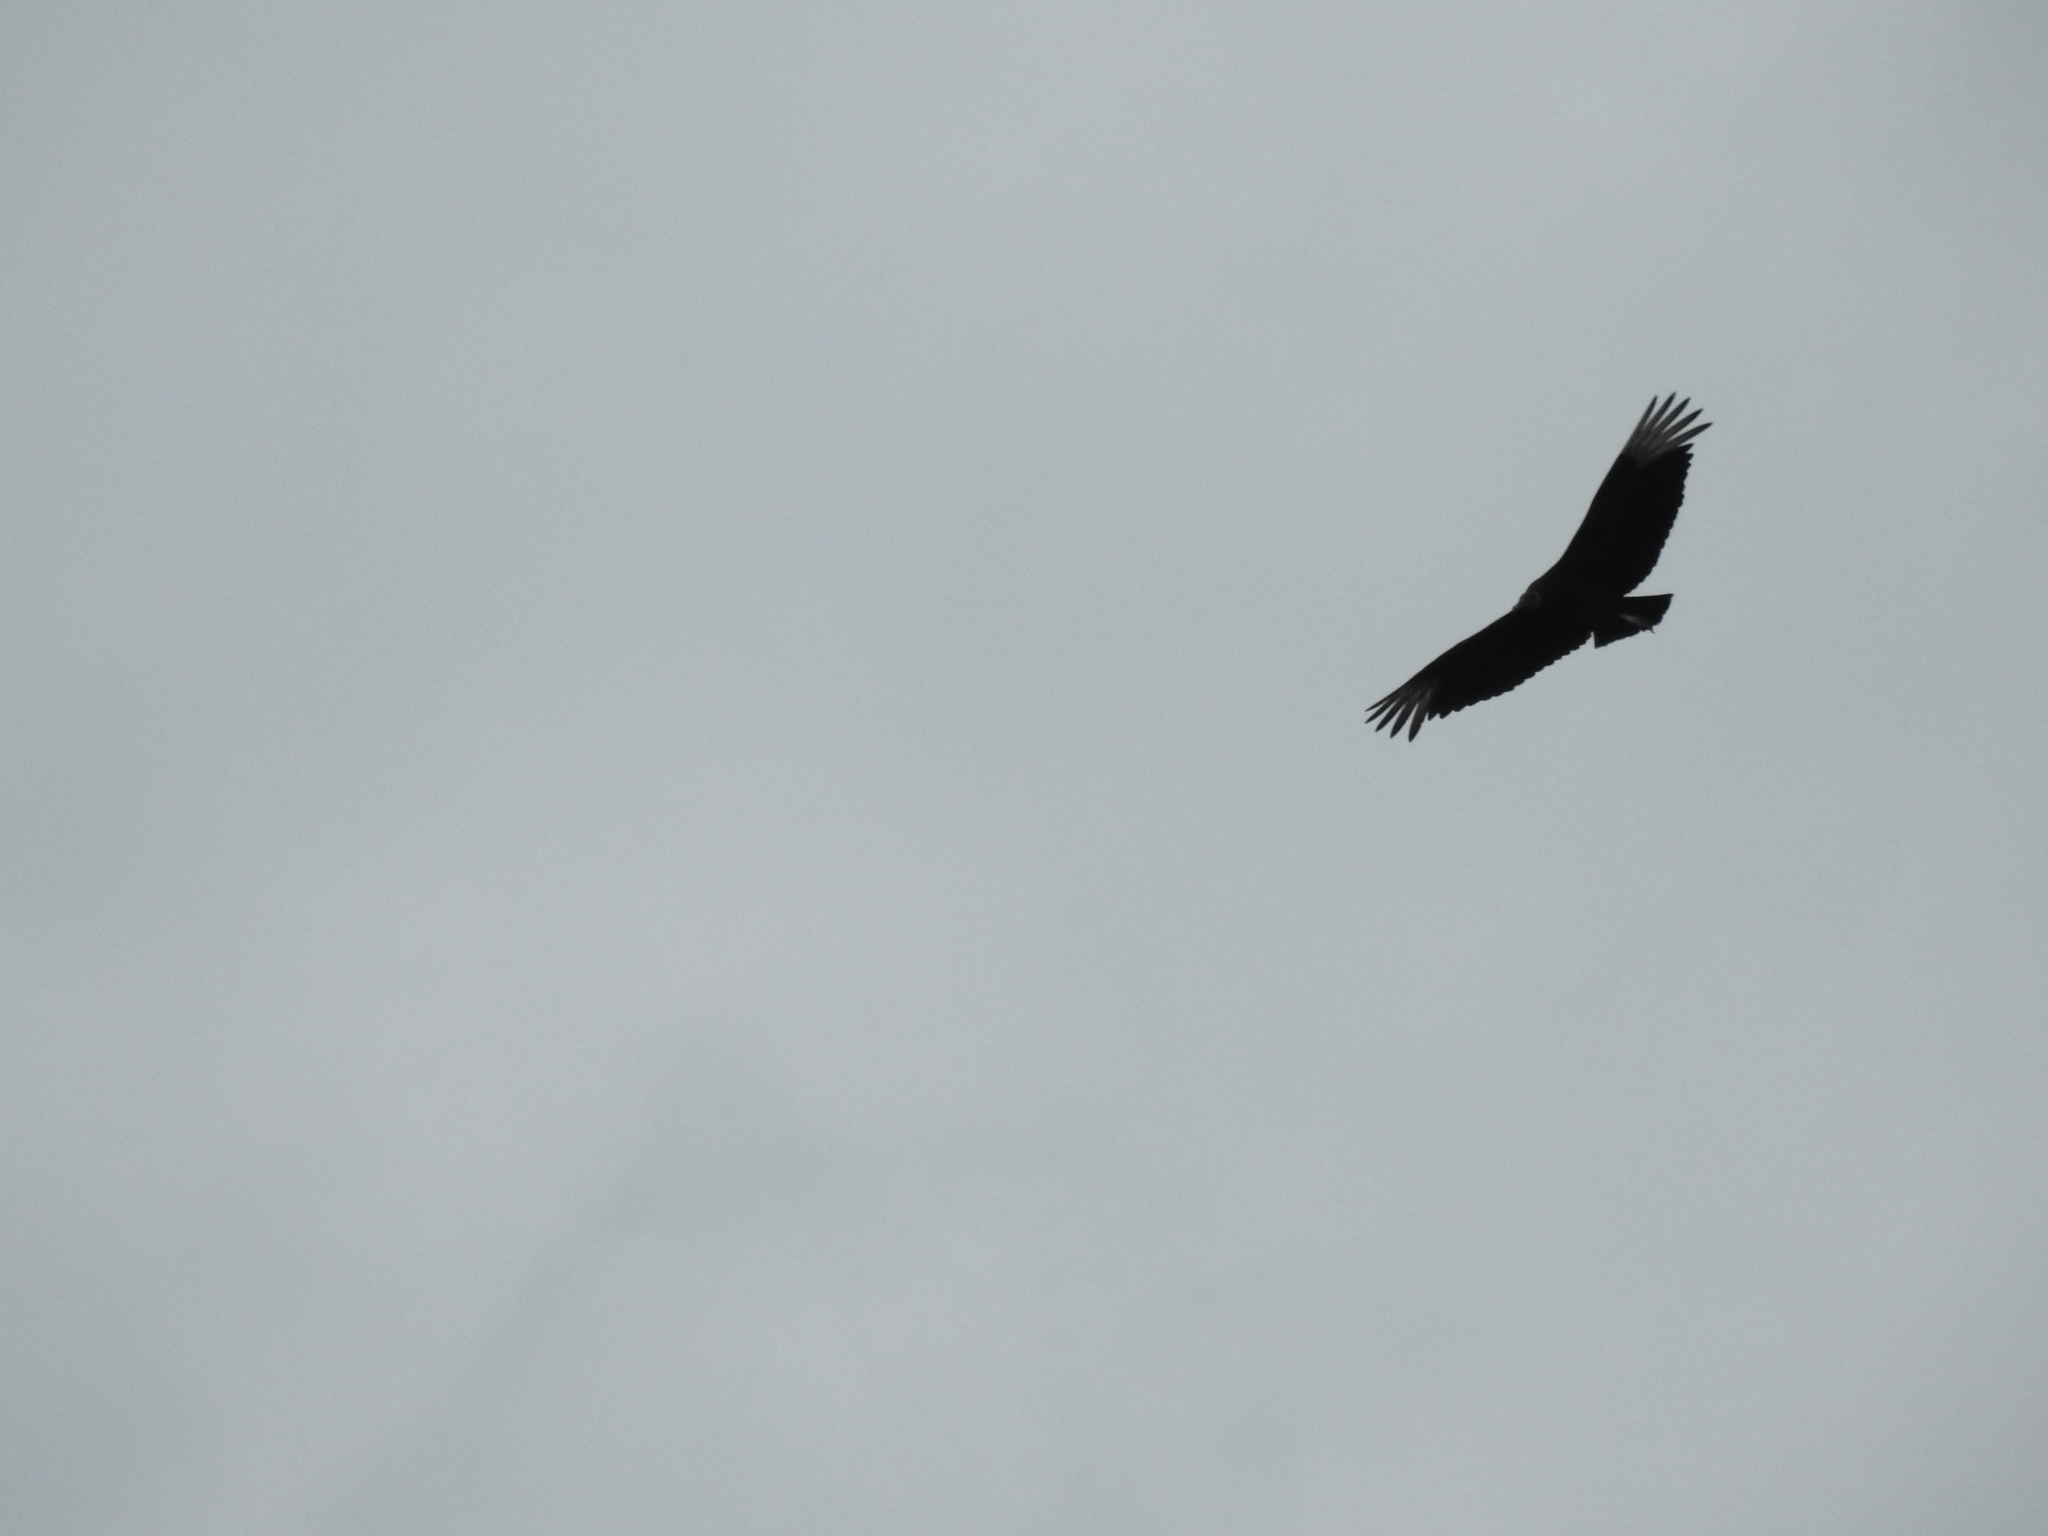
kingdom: Animalia
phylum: Chordata
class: Aves
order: Accipitriformes
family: Cathartidae
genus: Coragyps
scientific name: Coragyps atratus
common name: Black vulture
